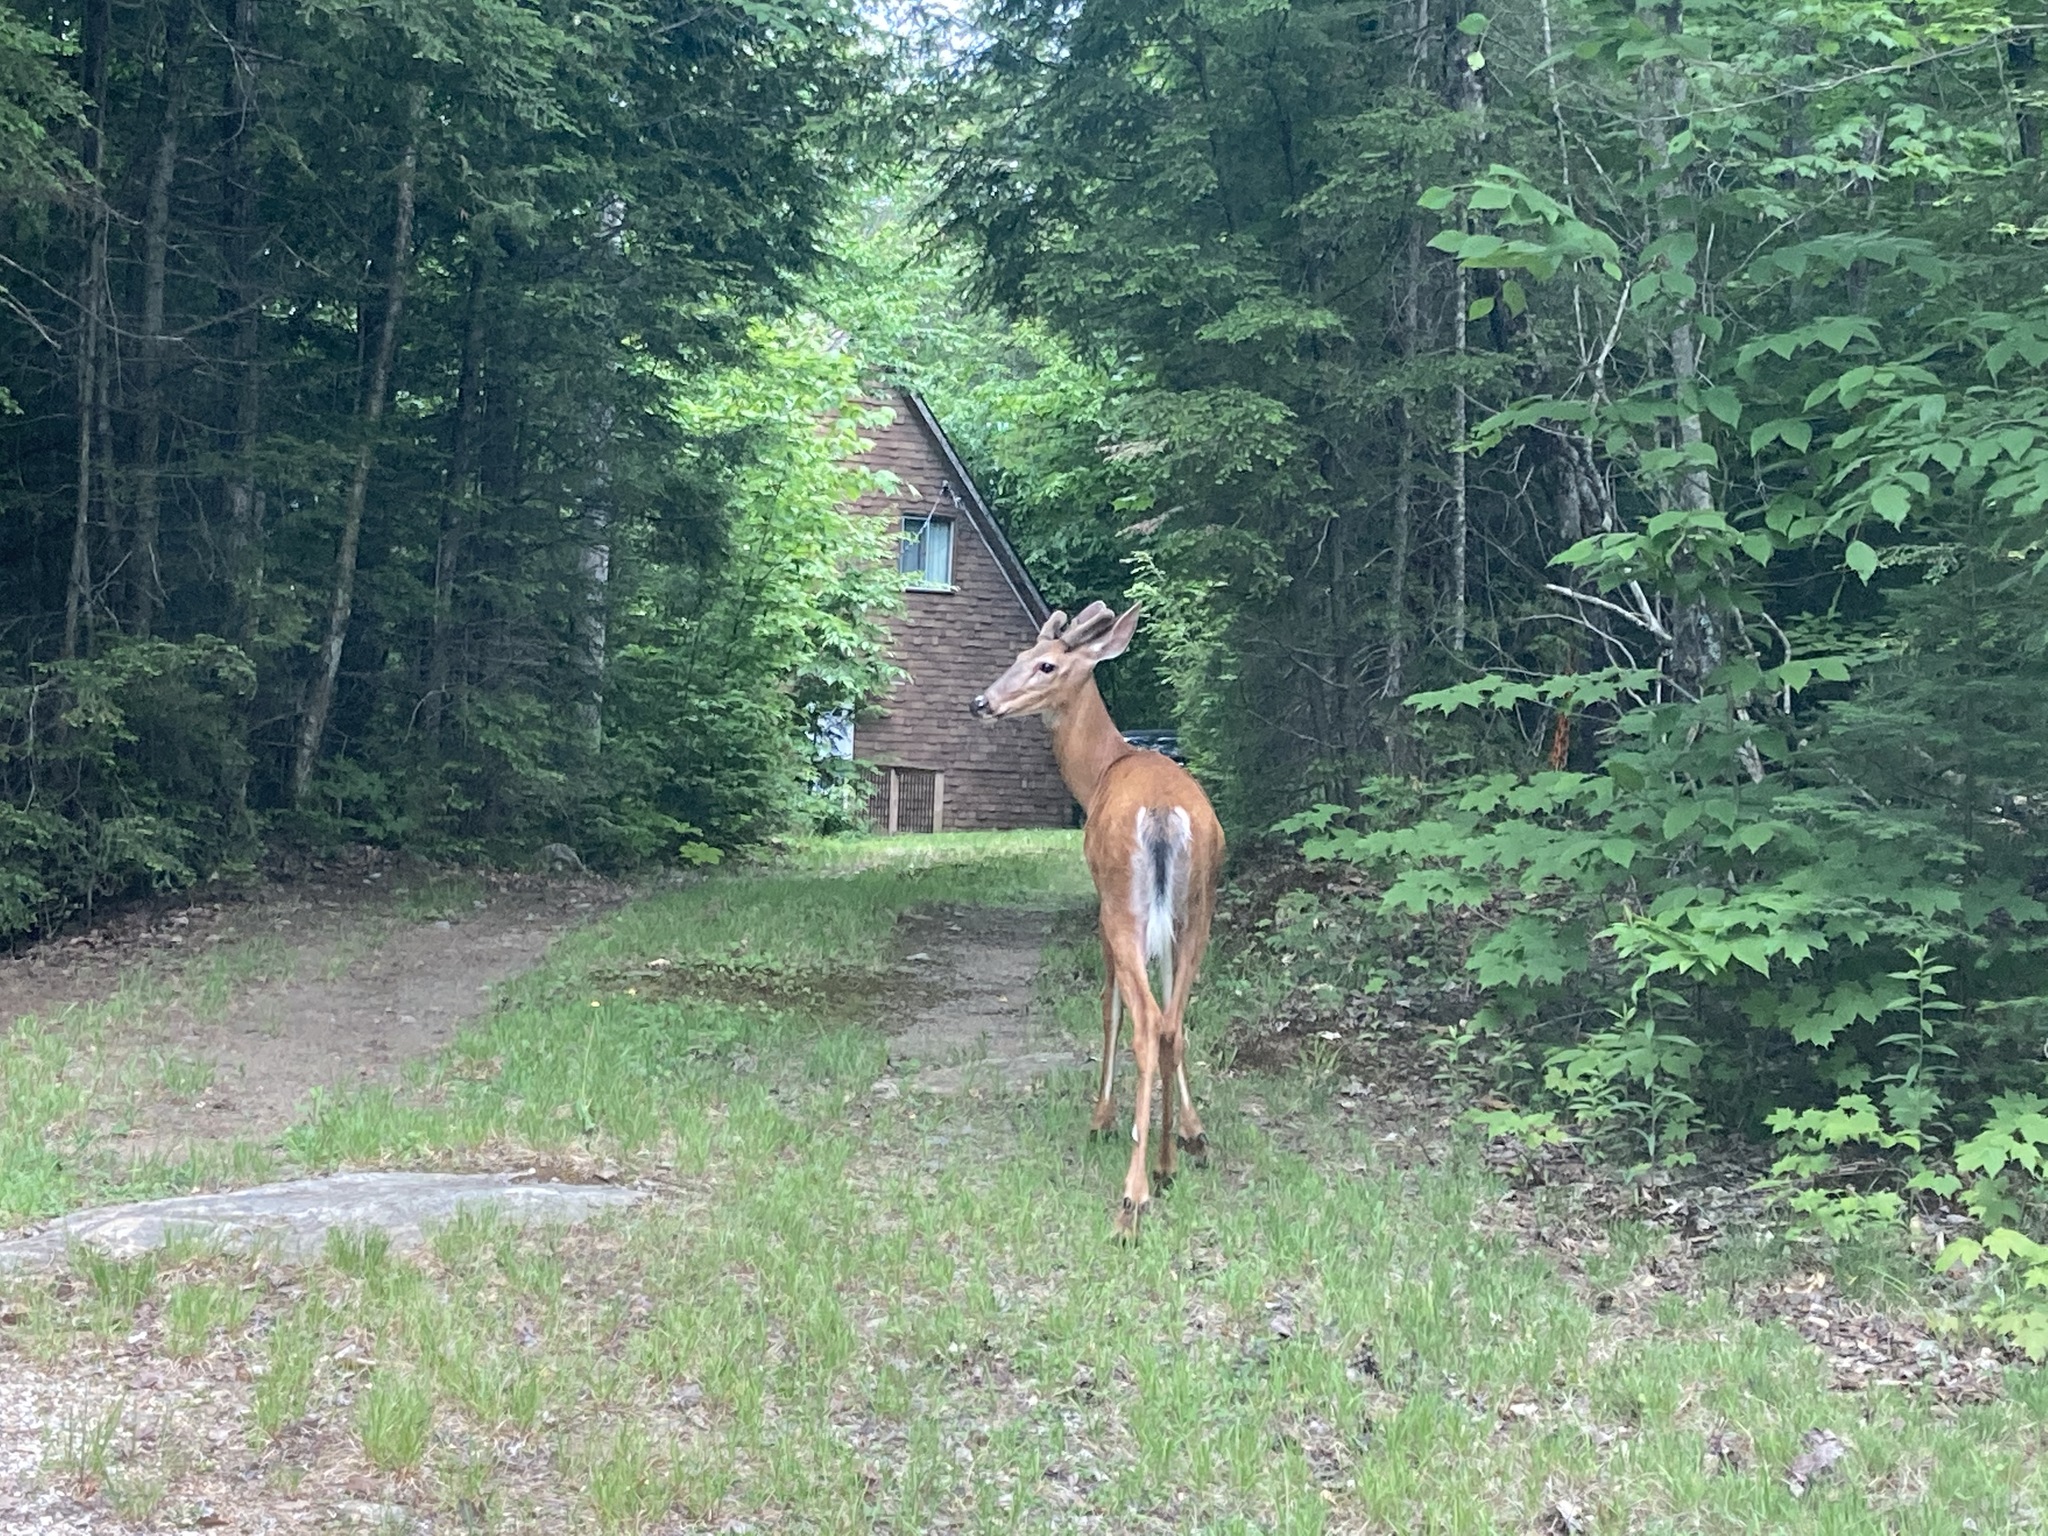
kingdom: Animalia
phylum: Chordata
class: Mammalia
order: Artiodactyla
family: Cervidae
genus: Odocoileus
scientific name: Odocoileus virginianus
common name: White-tailed deer
